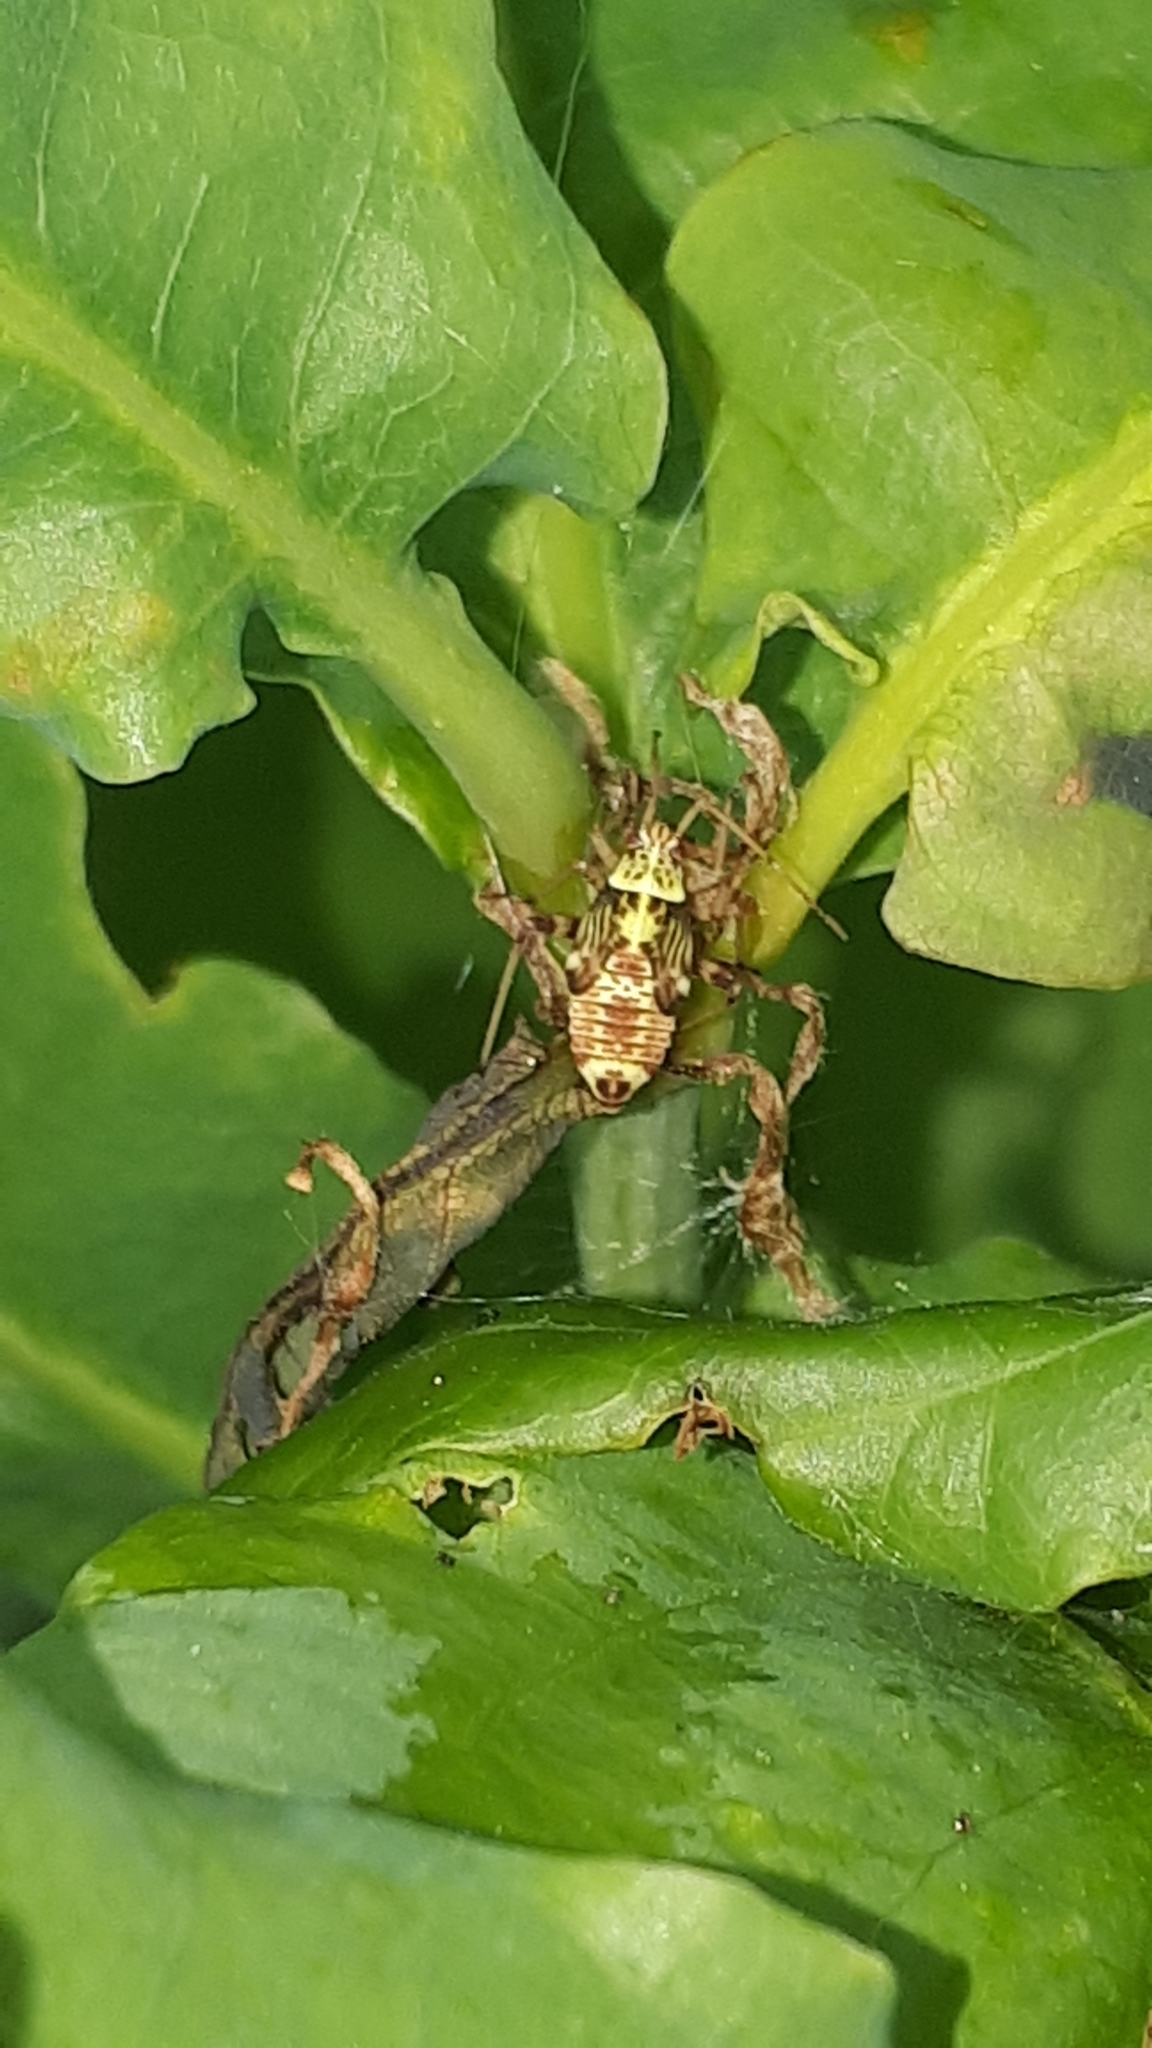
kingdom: Animalia
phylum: Arthropoda
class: Insecta
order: Hemiptera
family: Miridae
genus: Rhabdomiris
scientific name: Rhabdomiris striatellus
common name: Plant bug
